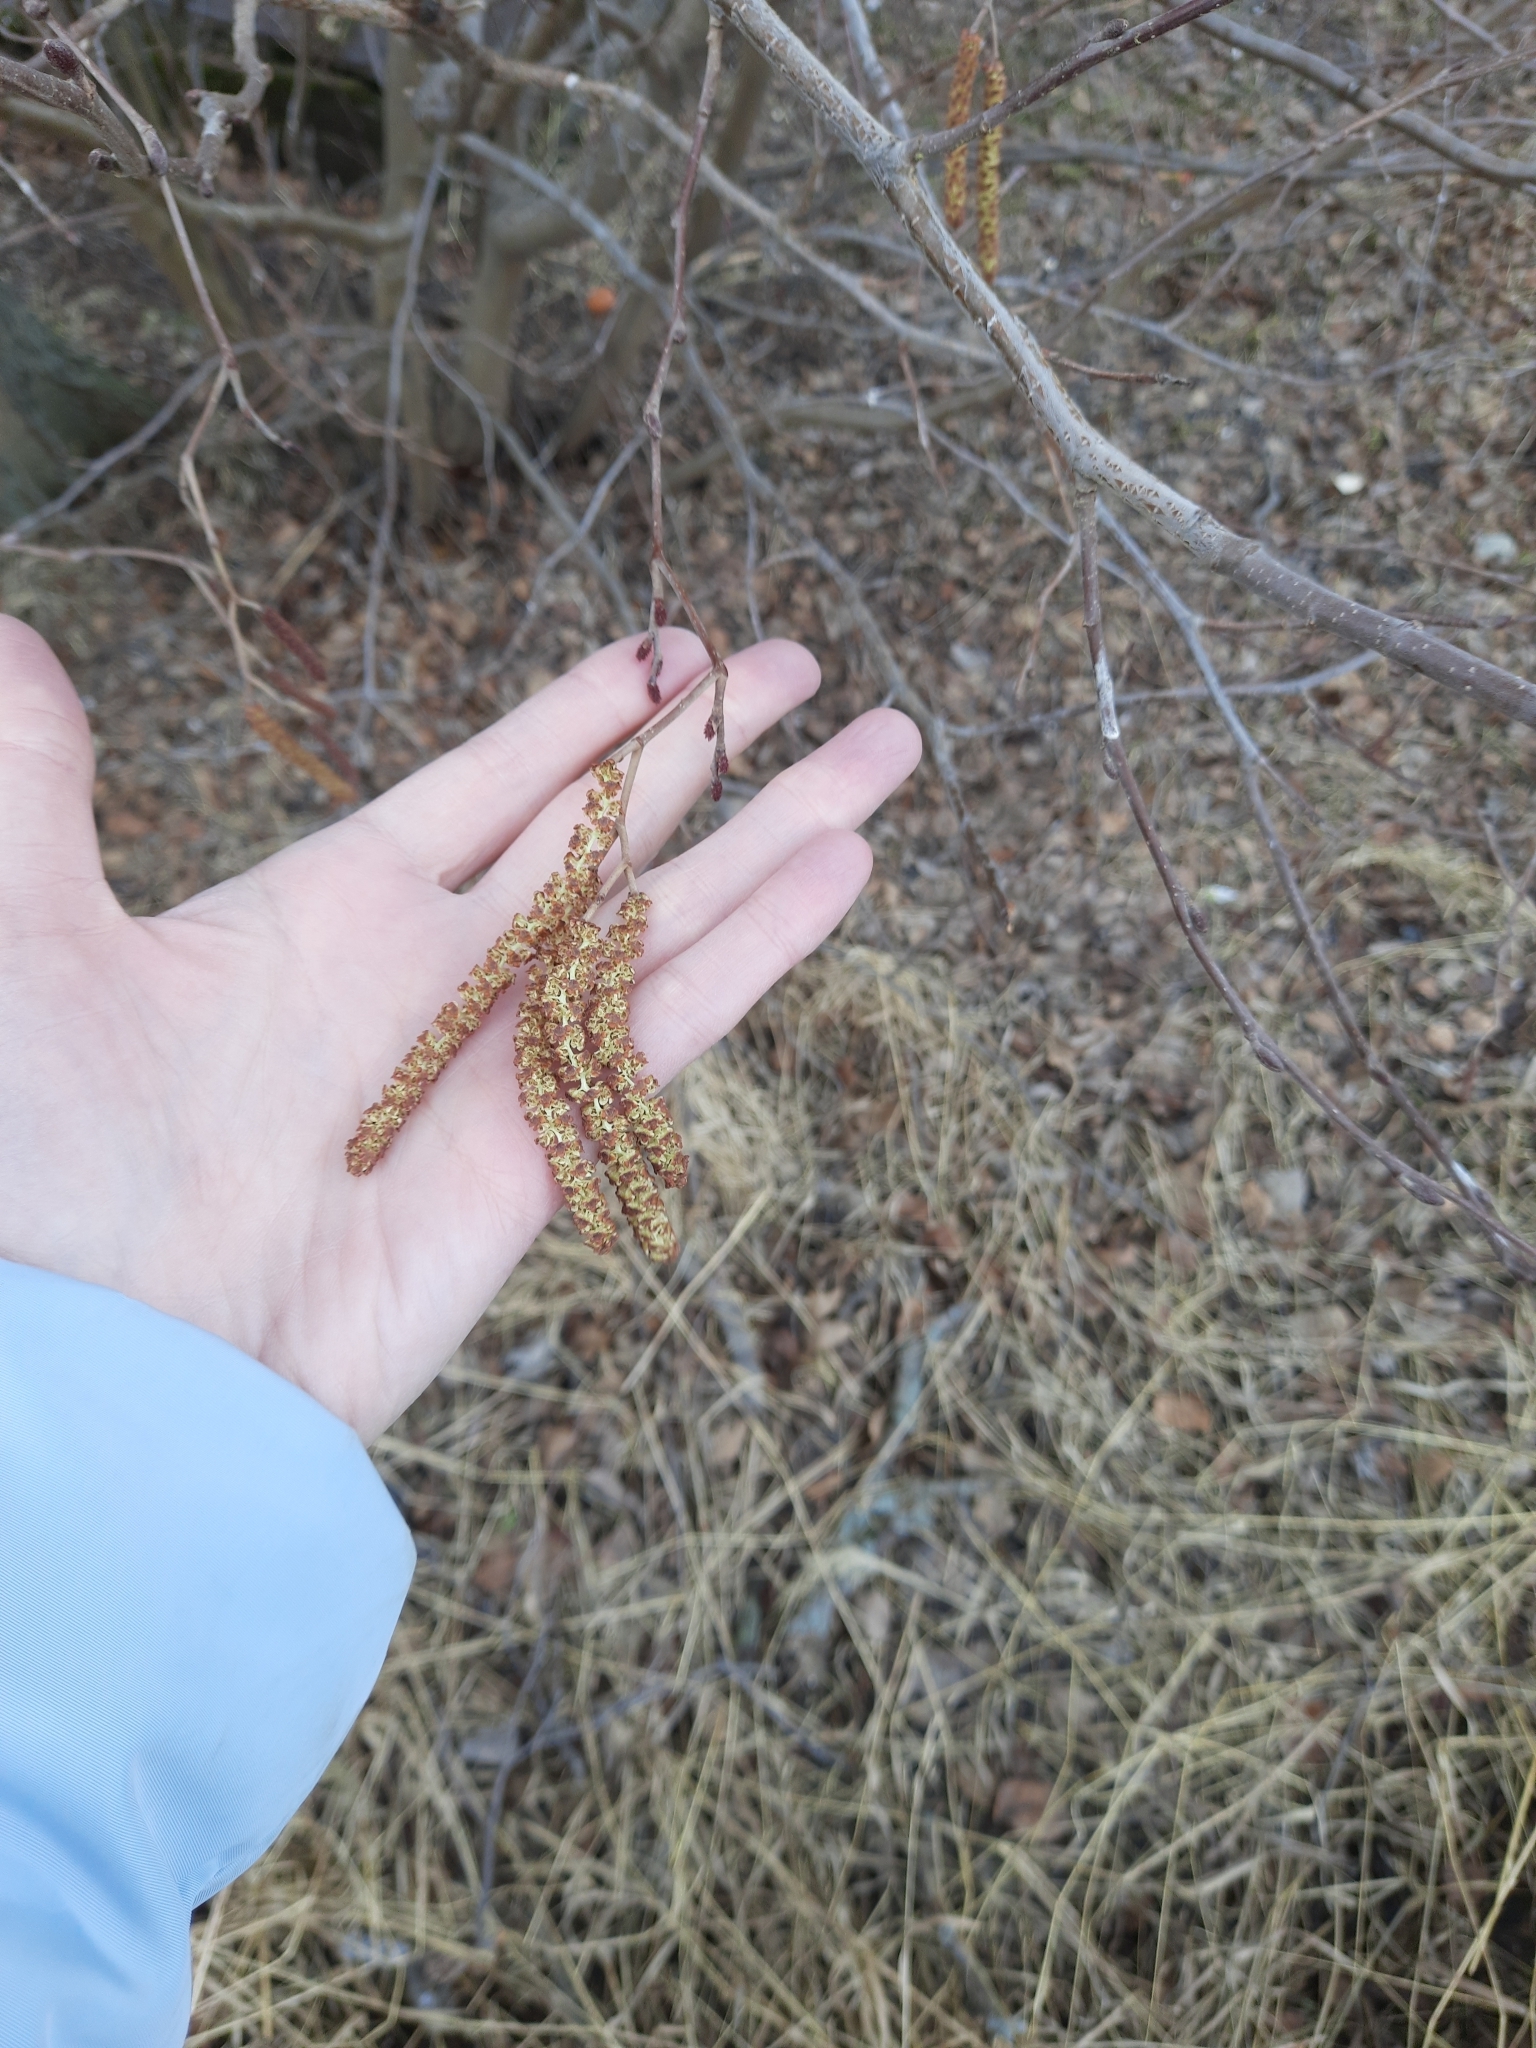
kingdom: Plantae
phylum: Tracheophyta
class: Magnoliopsida
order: Fagales
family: Betulaceae
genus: Alnus
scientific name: Alnus incana
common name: Grey alder
